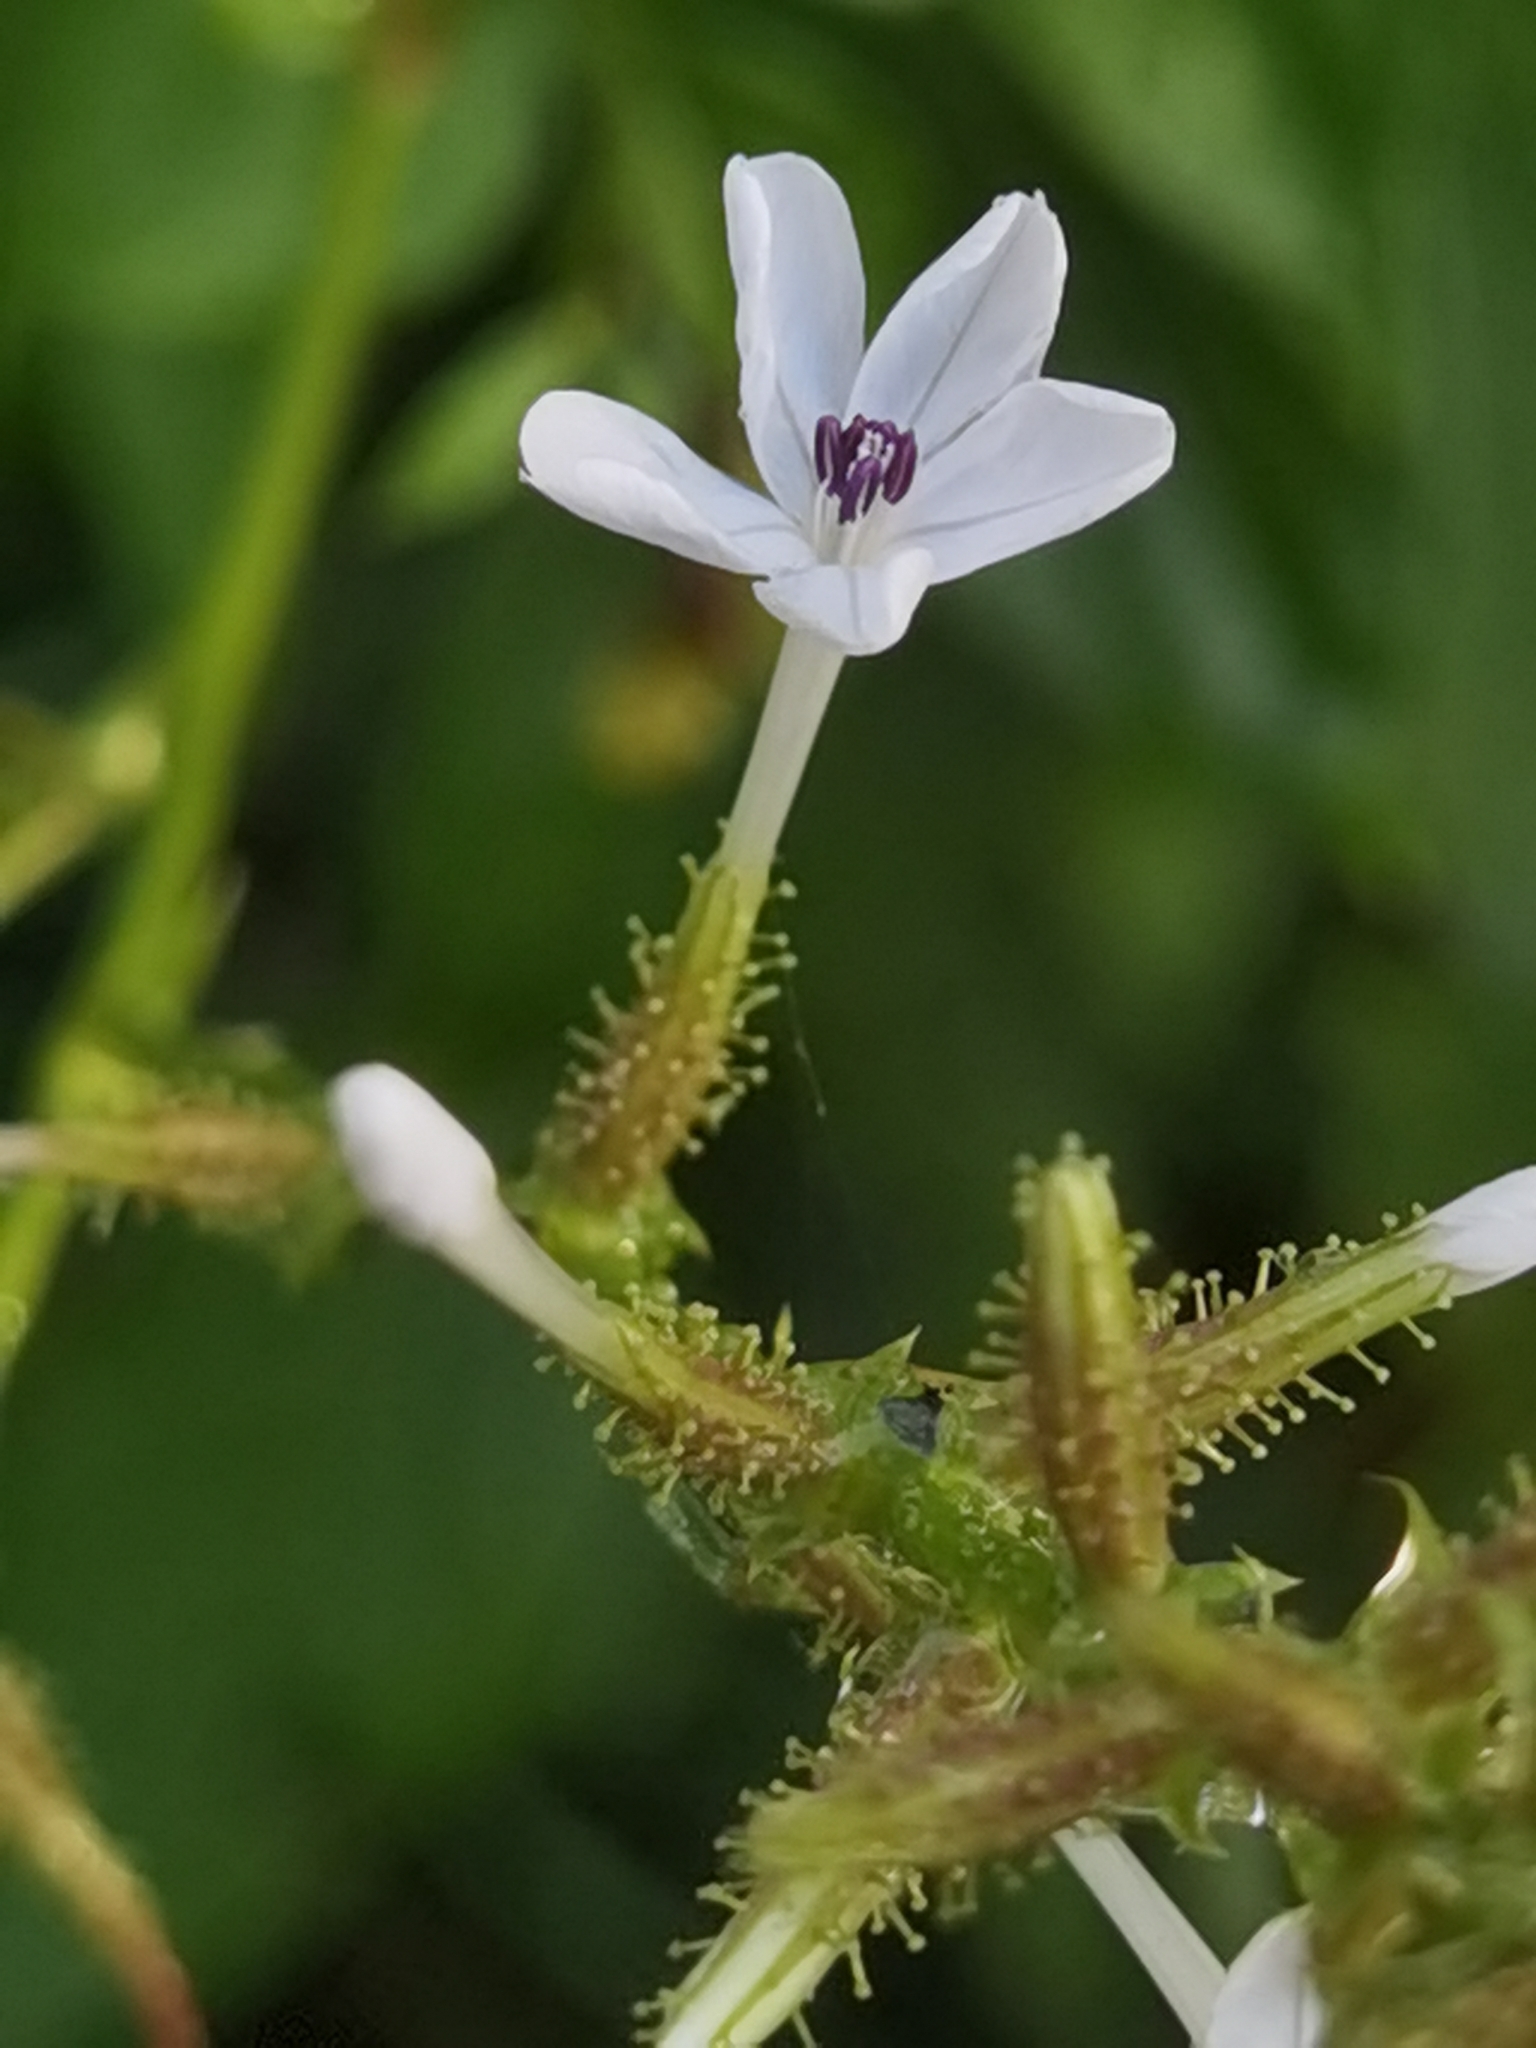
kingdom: Plantae
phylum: Tracheophyta
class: Magnoliopsida
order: Caryophyllales
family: Plumbaginaceae
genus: Plumbago
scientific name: Plumbago zeylanica
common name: Doctorbush
